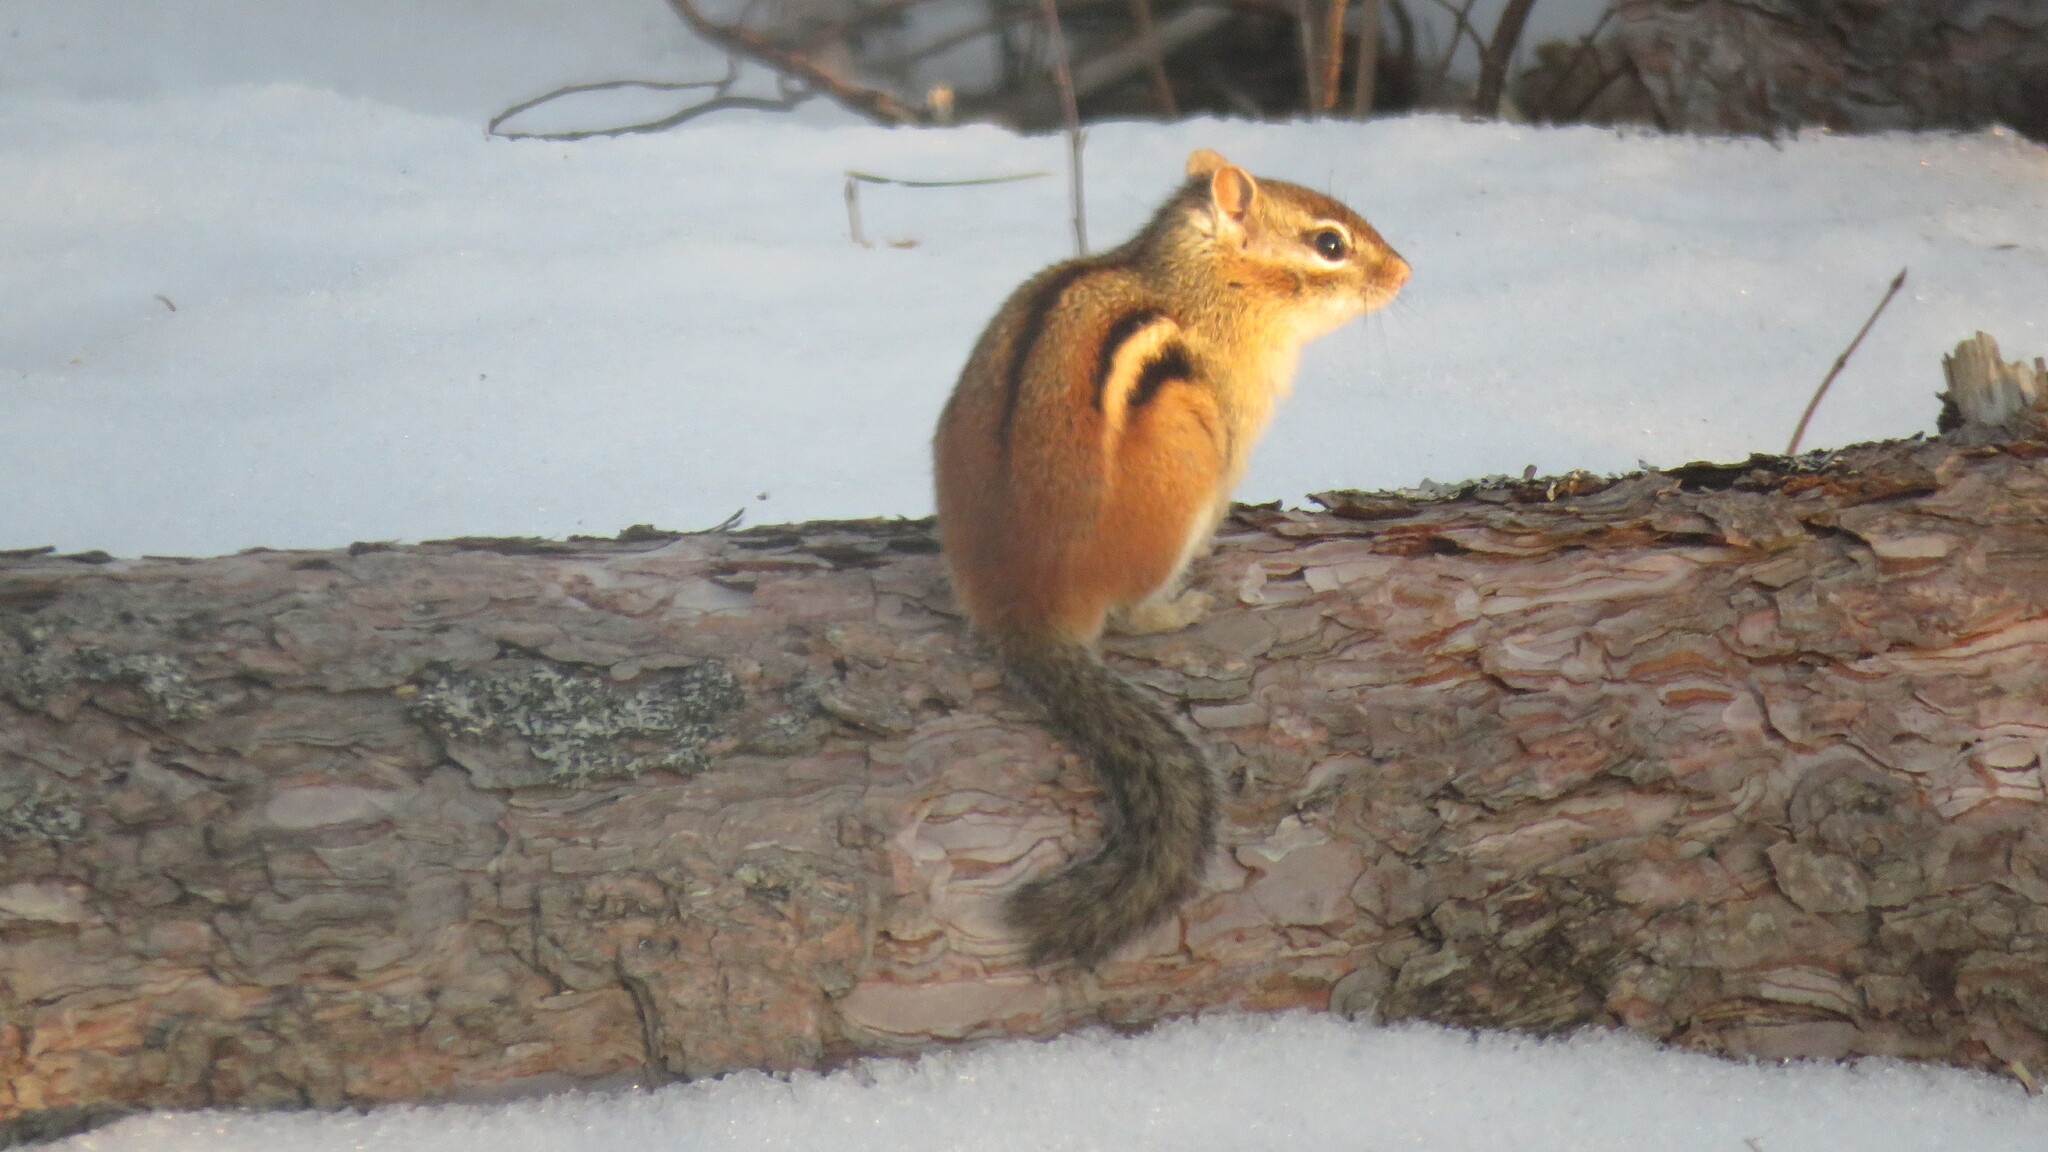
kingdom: Animalia
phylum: Chordata
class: Mammalia
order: Rodentia
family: Sciuridae
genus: Tamias
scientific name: Tamias striatus
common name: Eastern chipmunk
